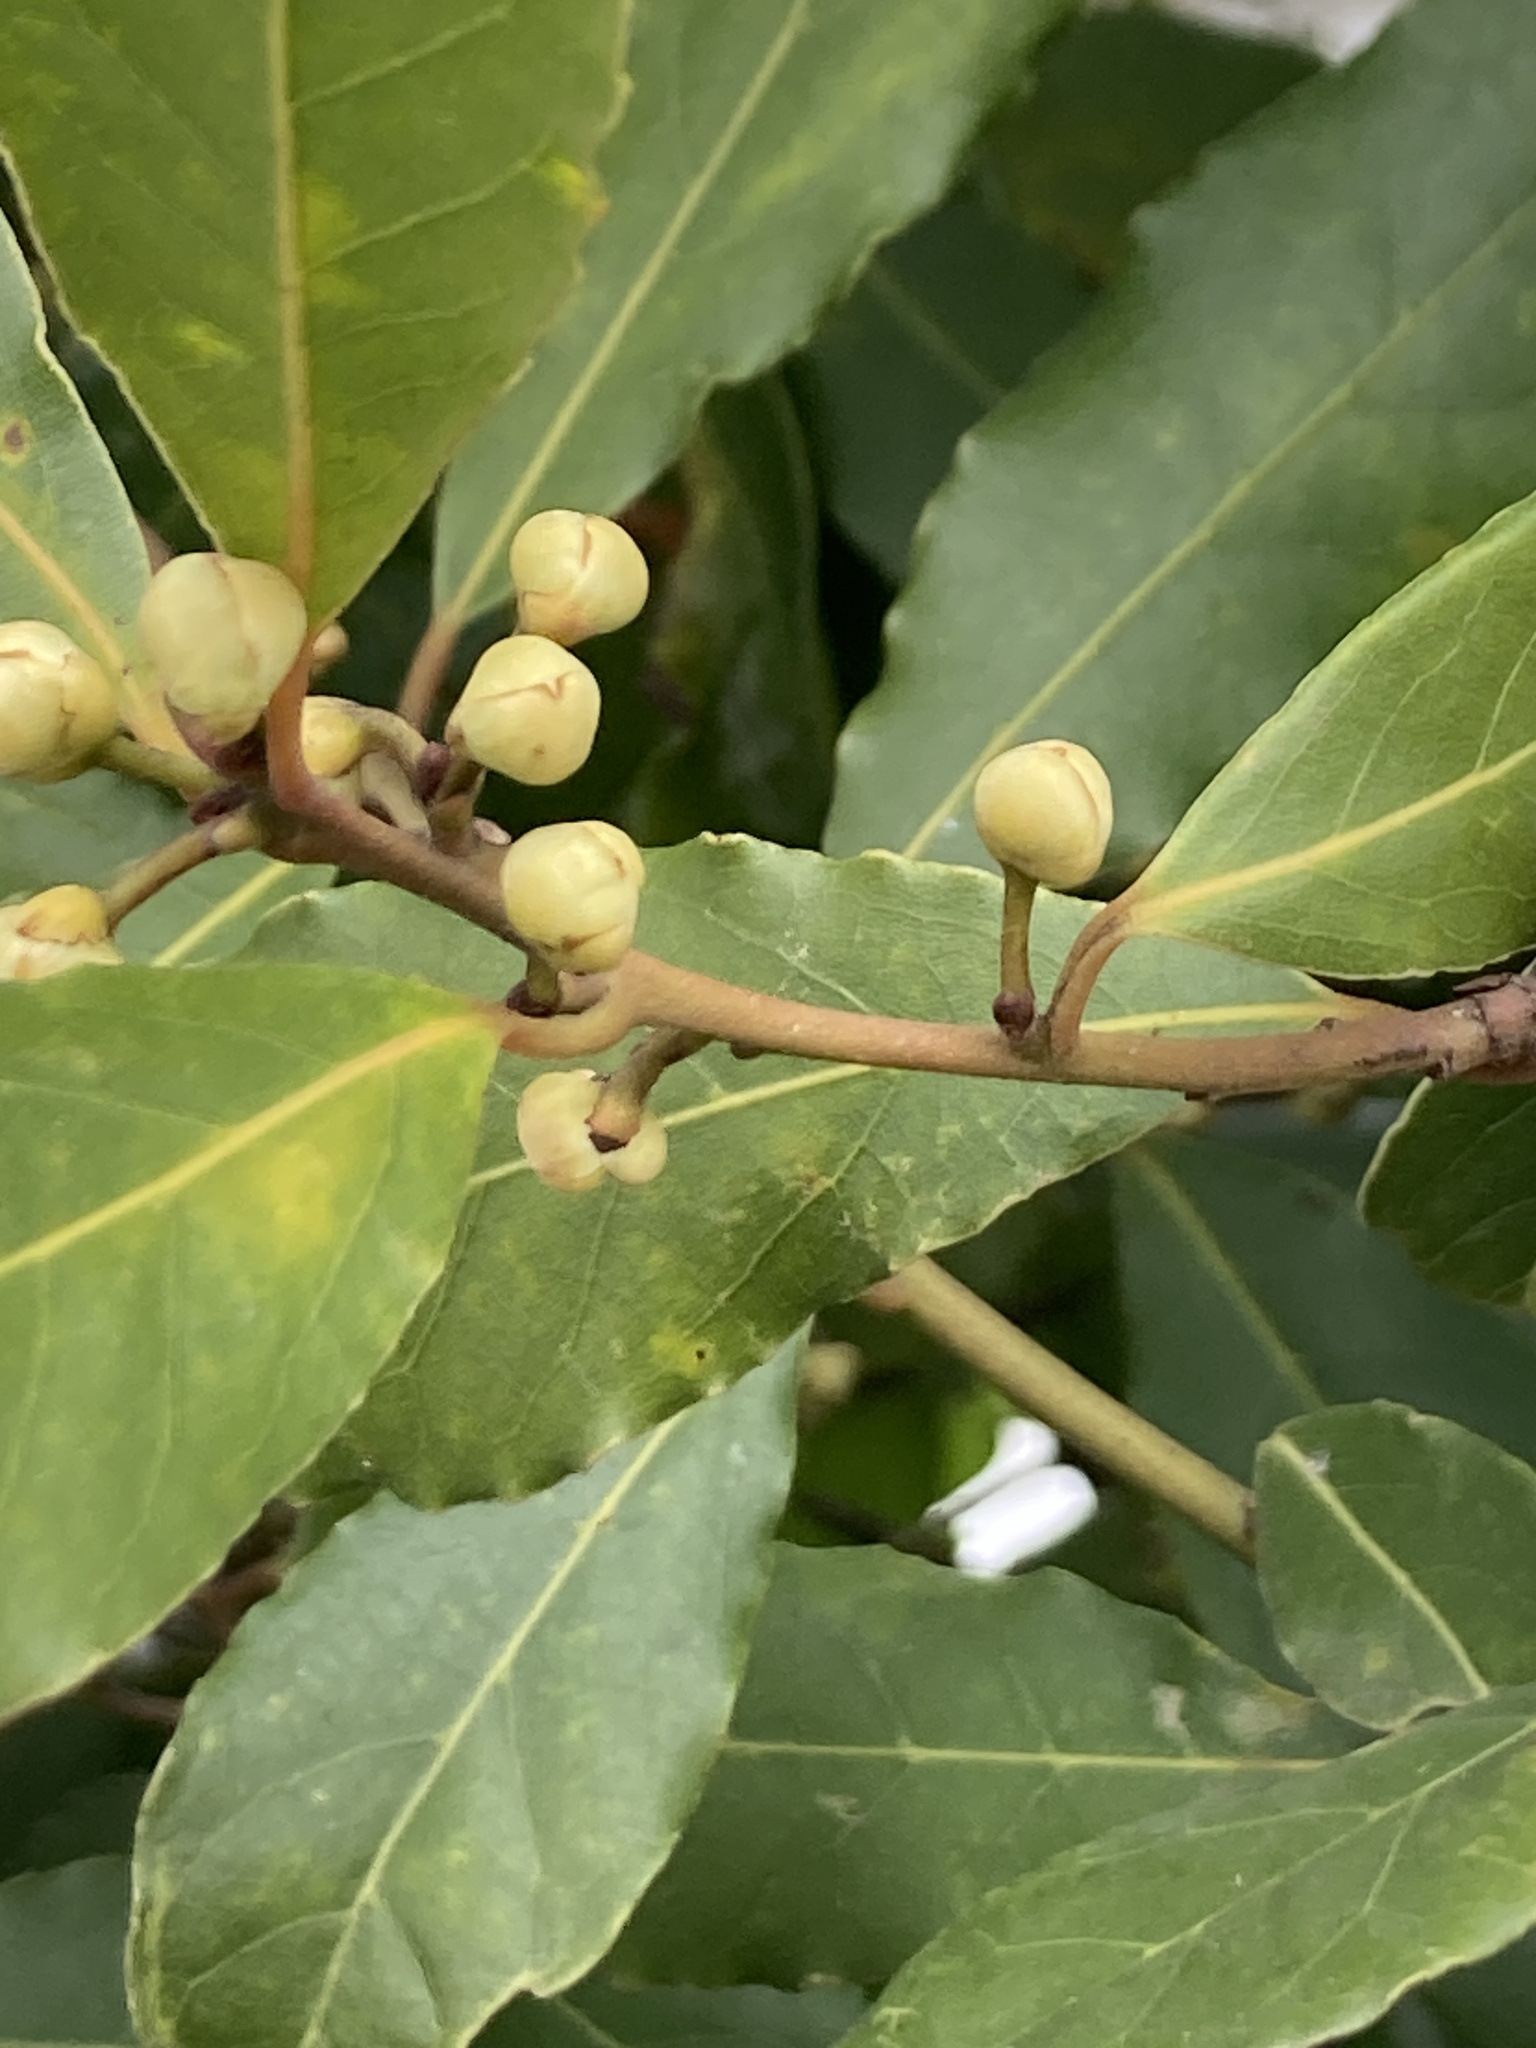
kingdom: Plantae
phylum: Tracheophyta
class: Magnoliopsida
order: Laurales
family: Lauraceae
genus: Laurus
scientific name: Laurus nobilis
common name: Bay
